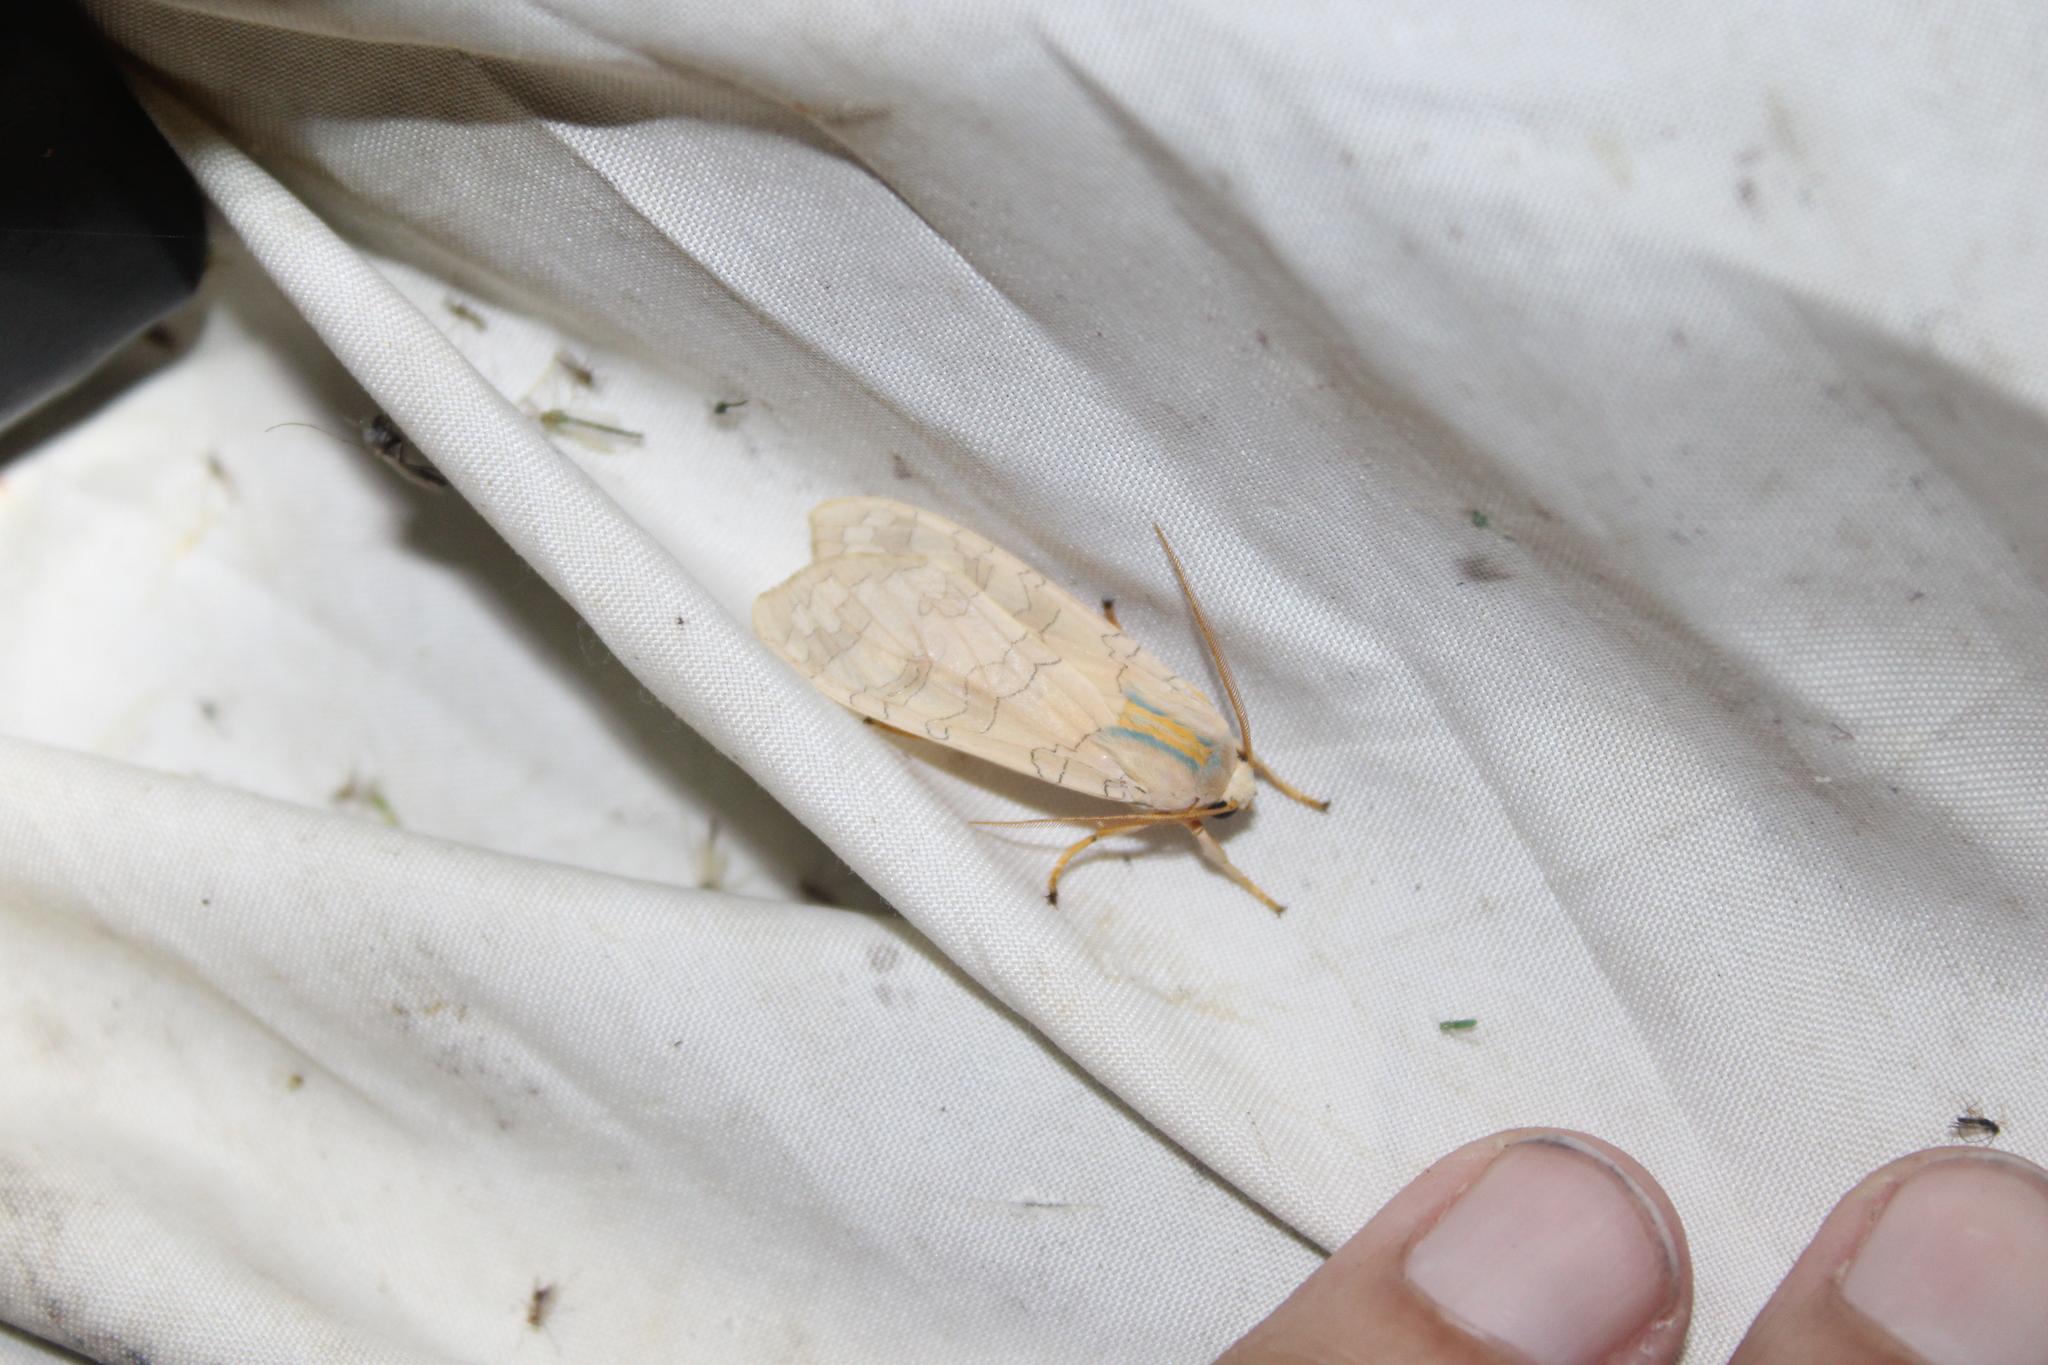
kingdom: Animalia
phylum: Arthropoda
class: Insecta
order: Lepidoptera
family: Erebidae
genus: Halysidota
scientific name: Halysidota
